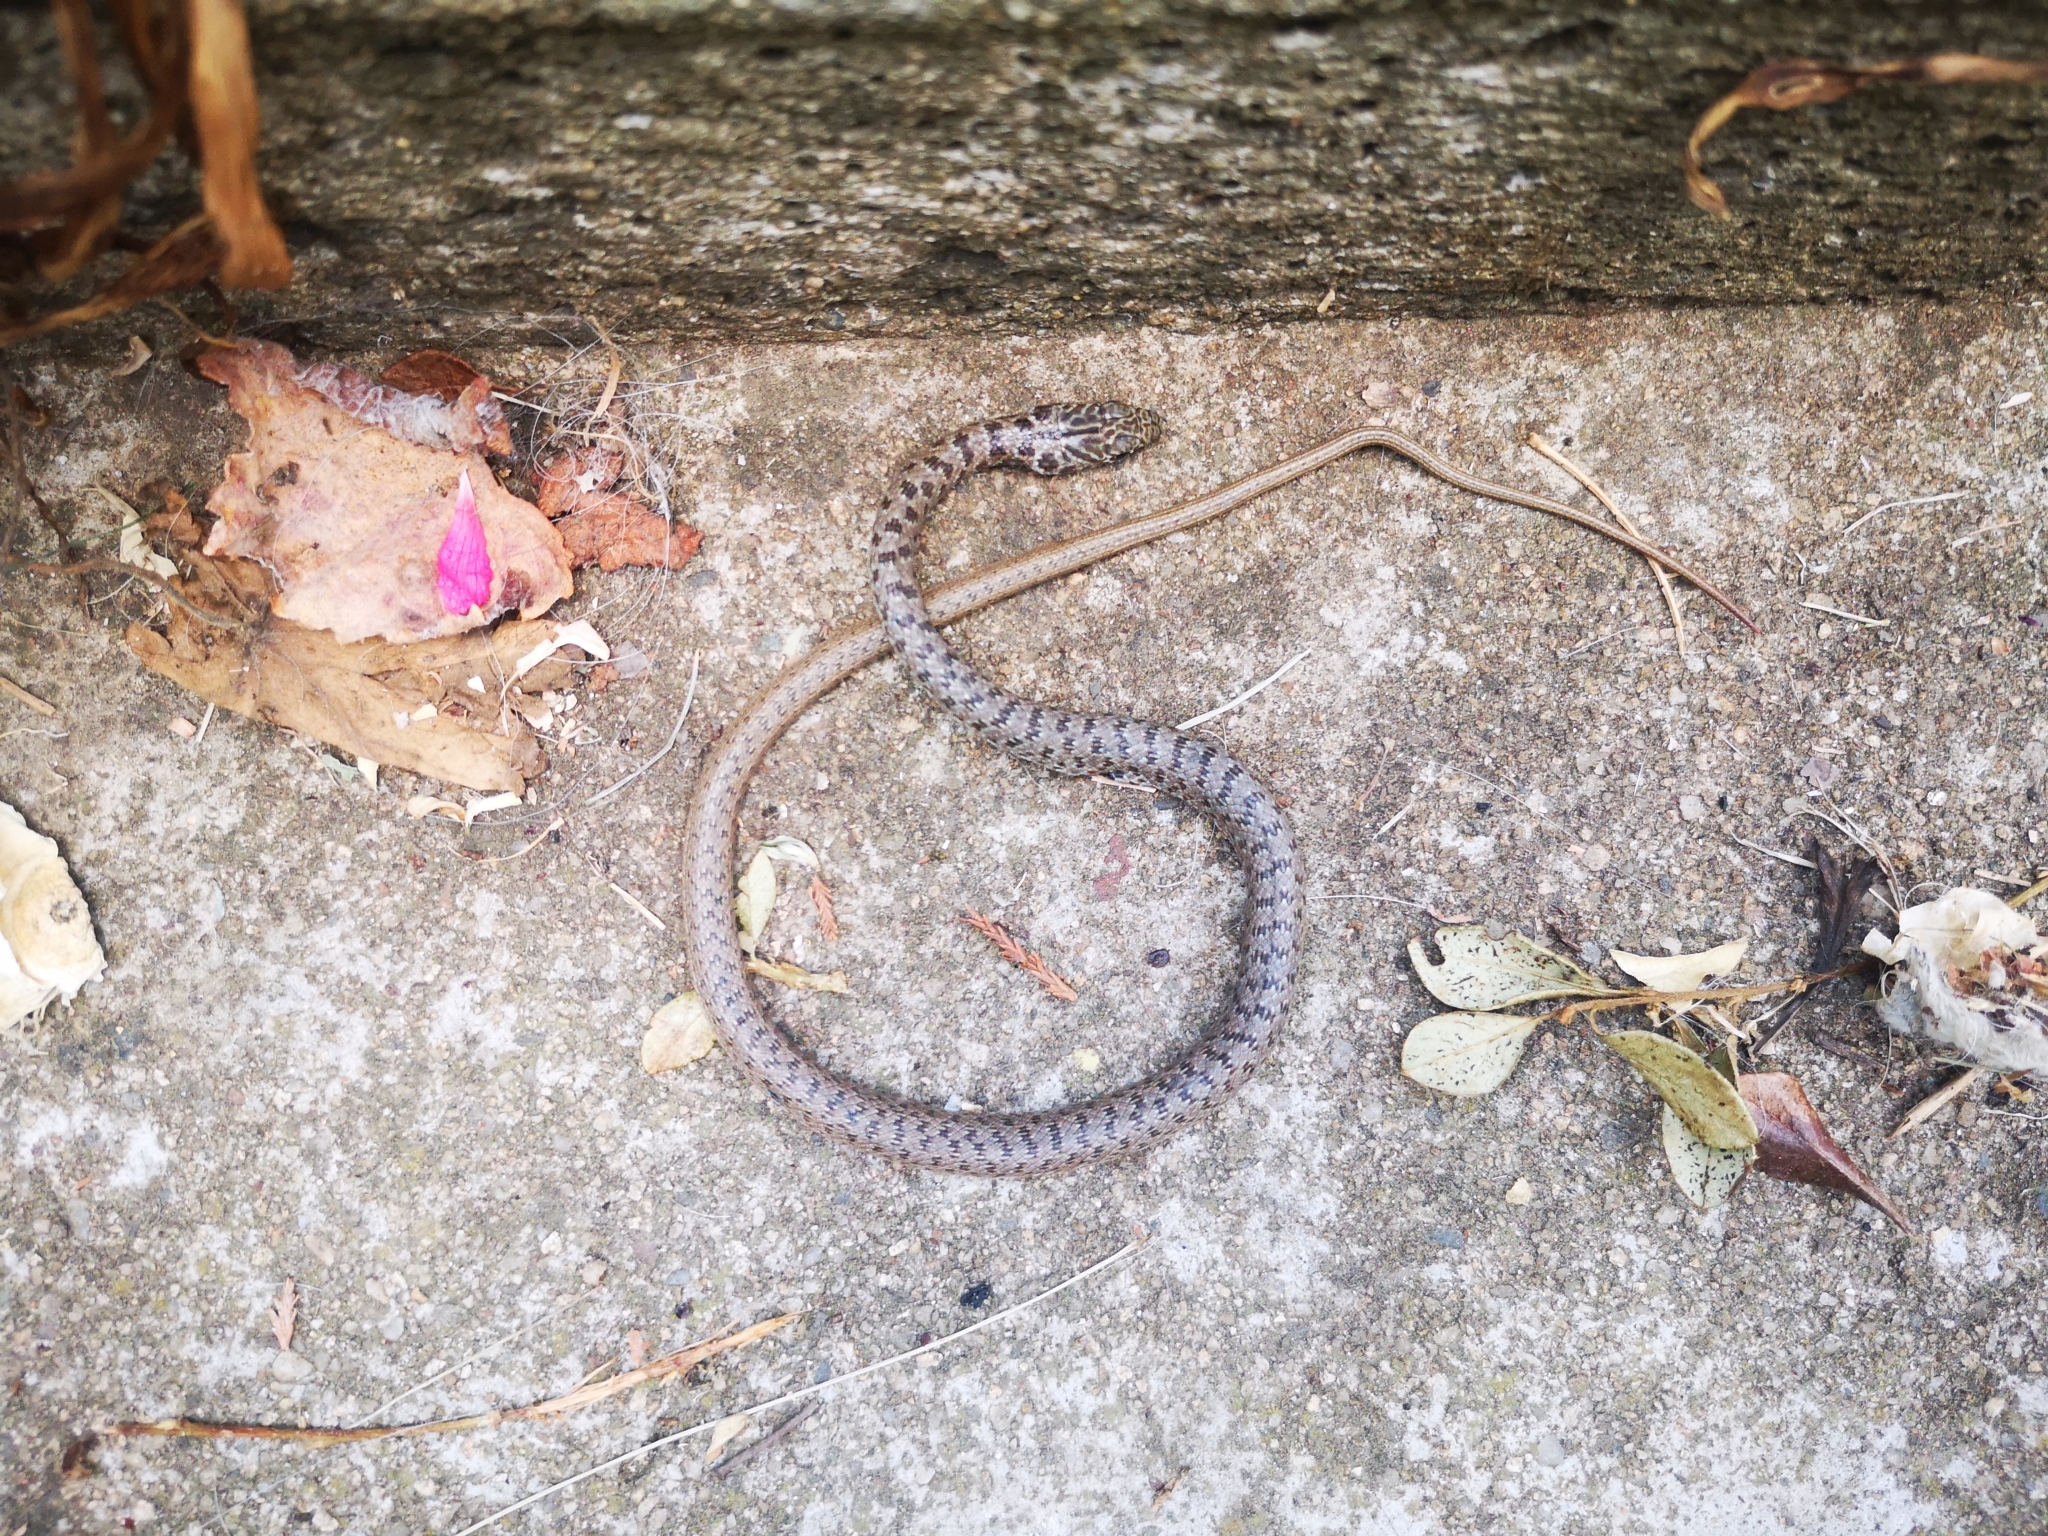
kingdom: Animalia
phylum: Chordata
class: Squamata
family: Colubridae
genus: Dolichophis
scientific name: Dolichophis caspius
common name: Large whip snake
